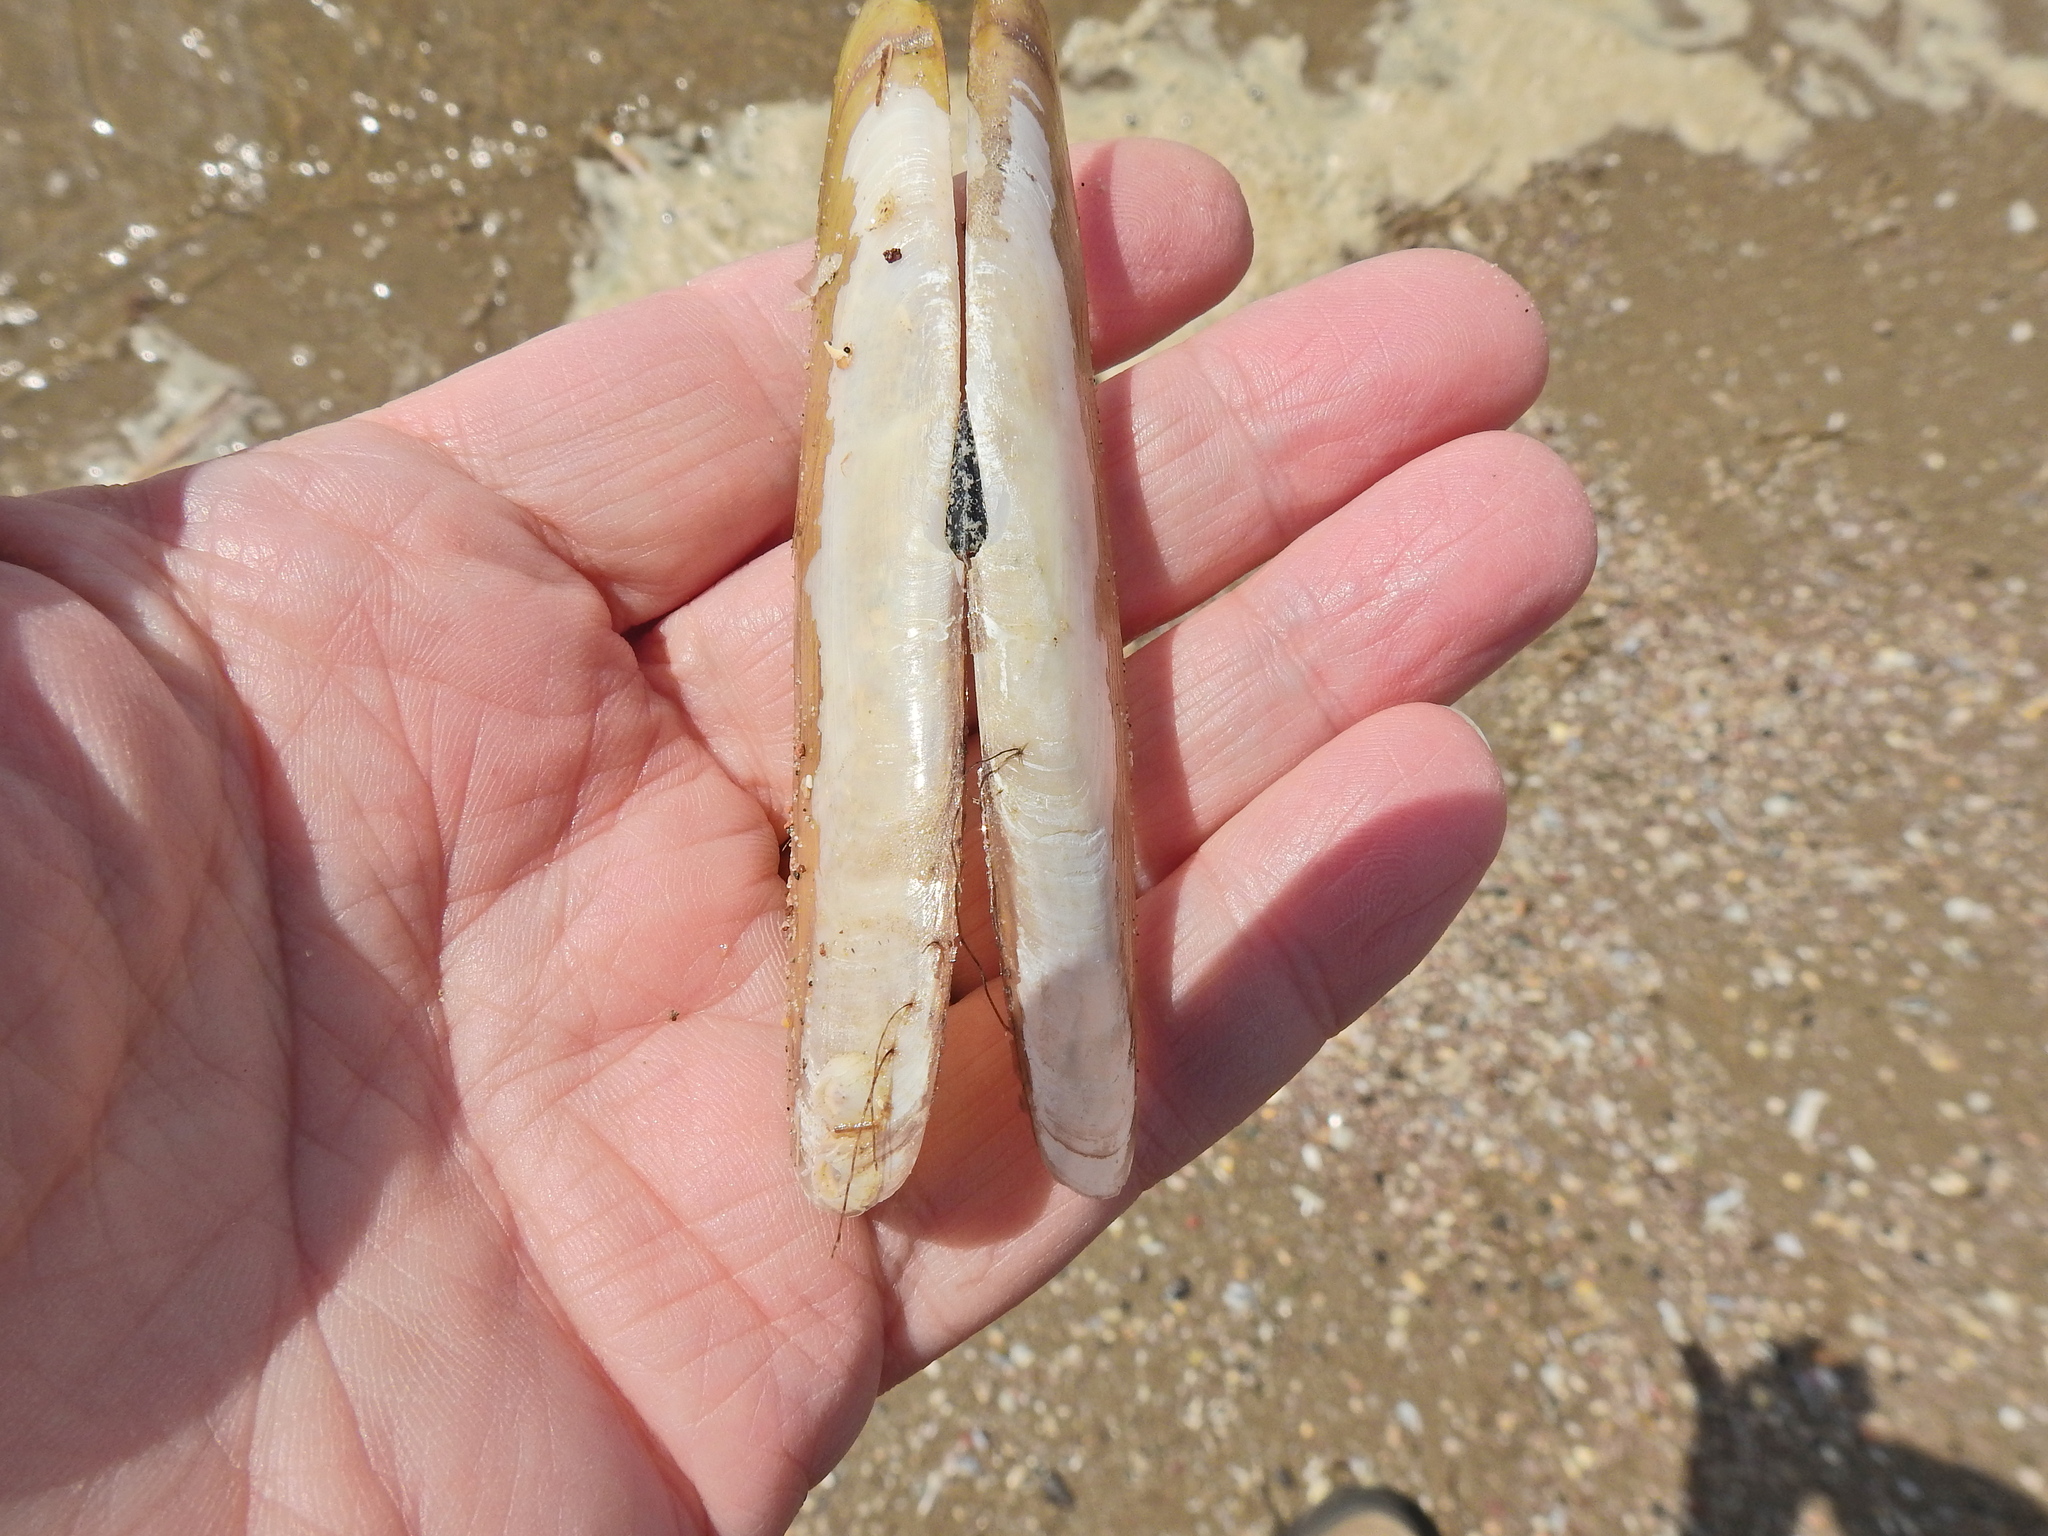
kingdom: Animalia
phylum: Mollusca
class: Bivalvia
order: Adapedonta
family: Pharidae
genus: Pharus
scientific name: Pharus legumen
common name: Bean razor clam
